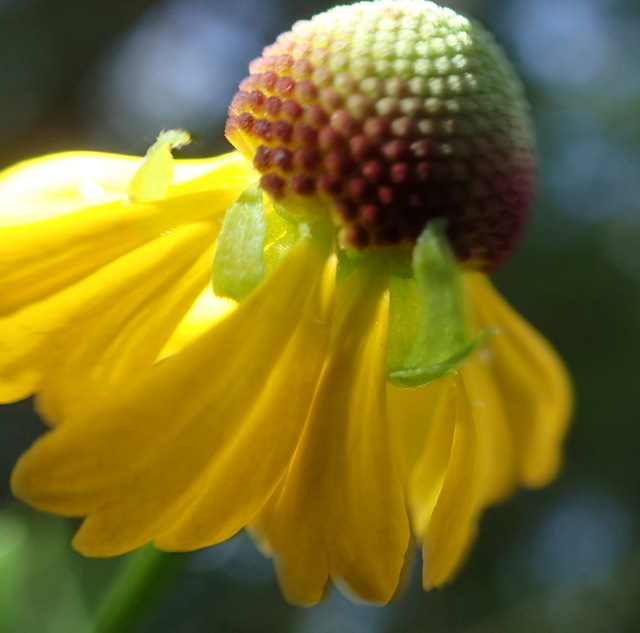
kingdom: Plantae
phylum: Tracheophyta
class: Magnoliopsida
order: Asterales
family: Asteraceae
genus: Helenium
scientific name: Helenium flexuosum
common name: Naked-flowered sneezeweed
